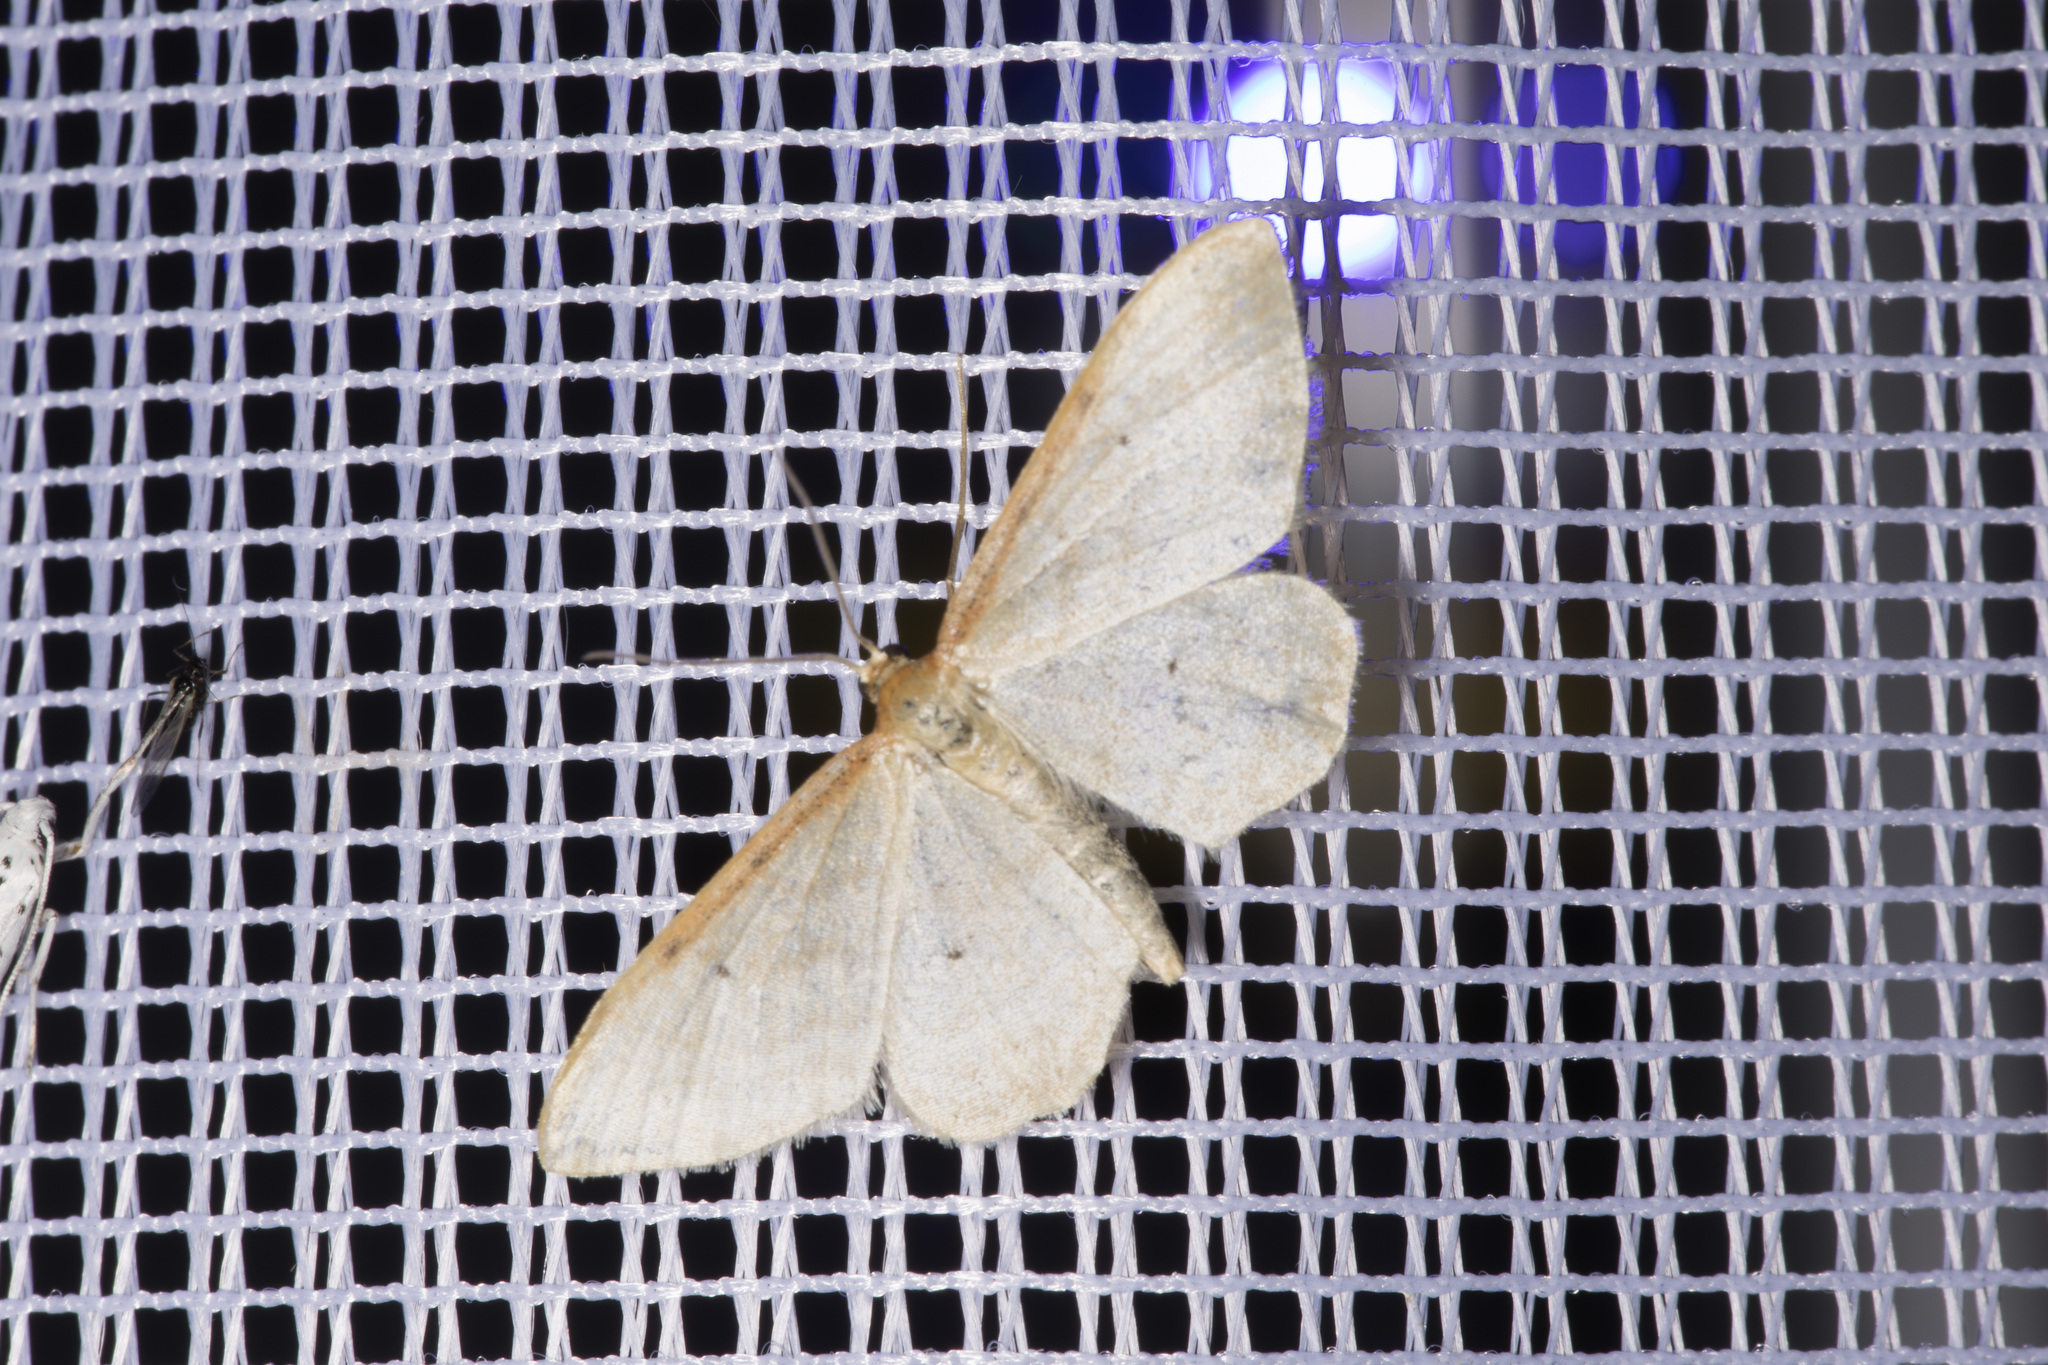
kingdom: Animalia
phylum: Arthropoda
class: Insecta
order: Lepidoptera
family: Geometridae
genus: Idaea
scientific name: Idaea humiliata
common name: Isle of wight wave
